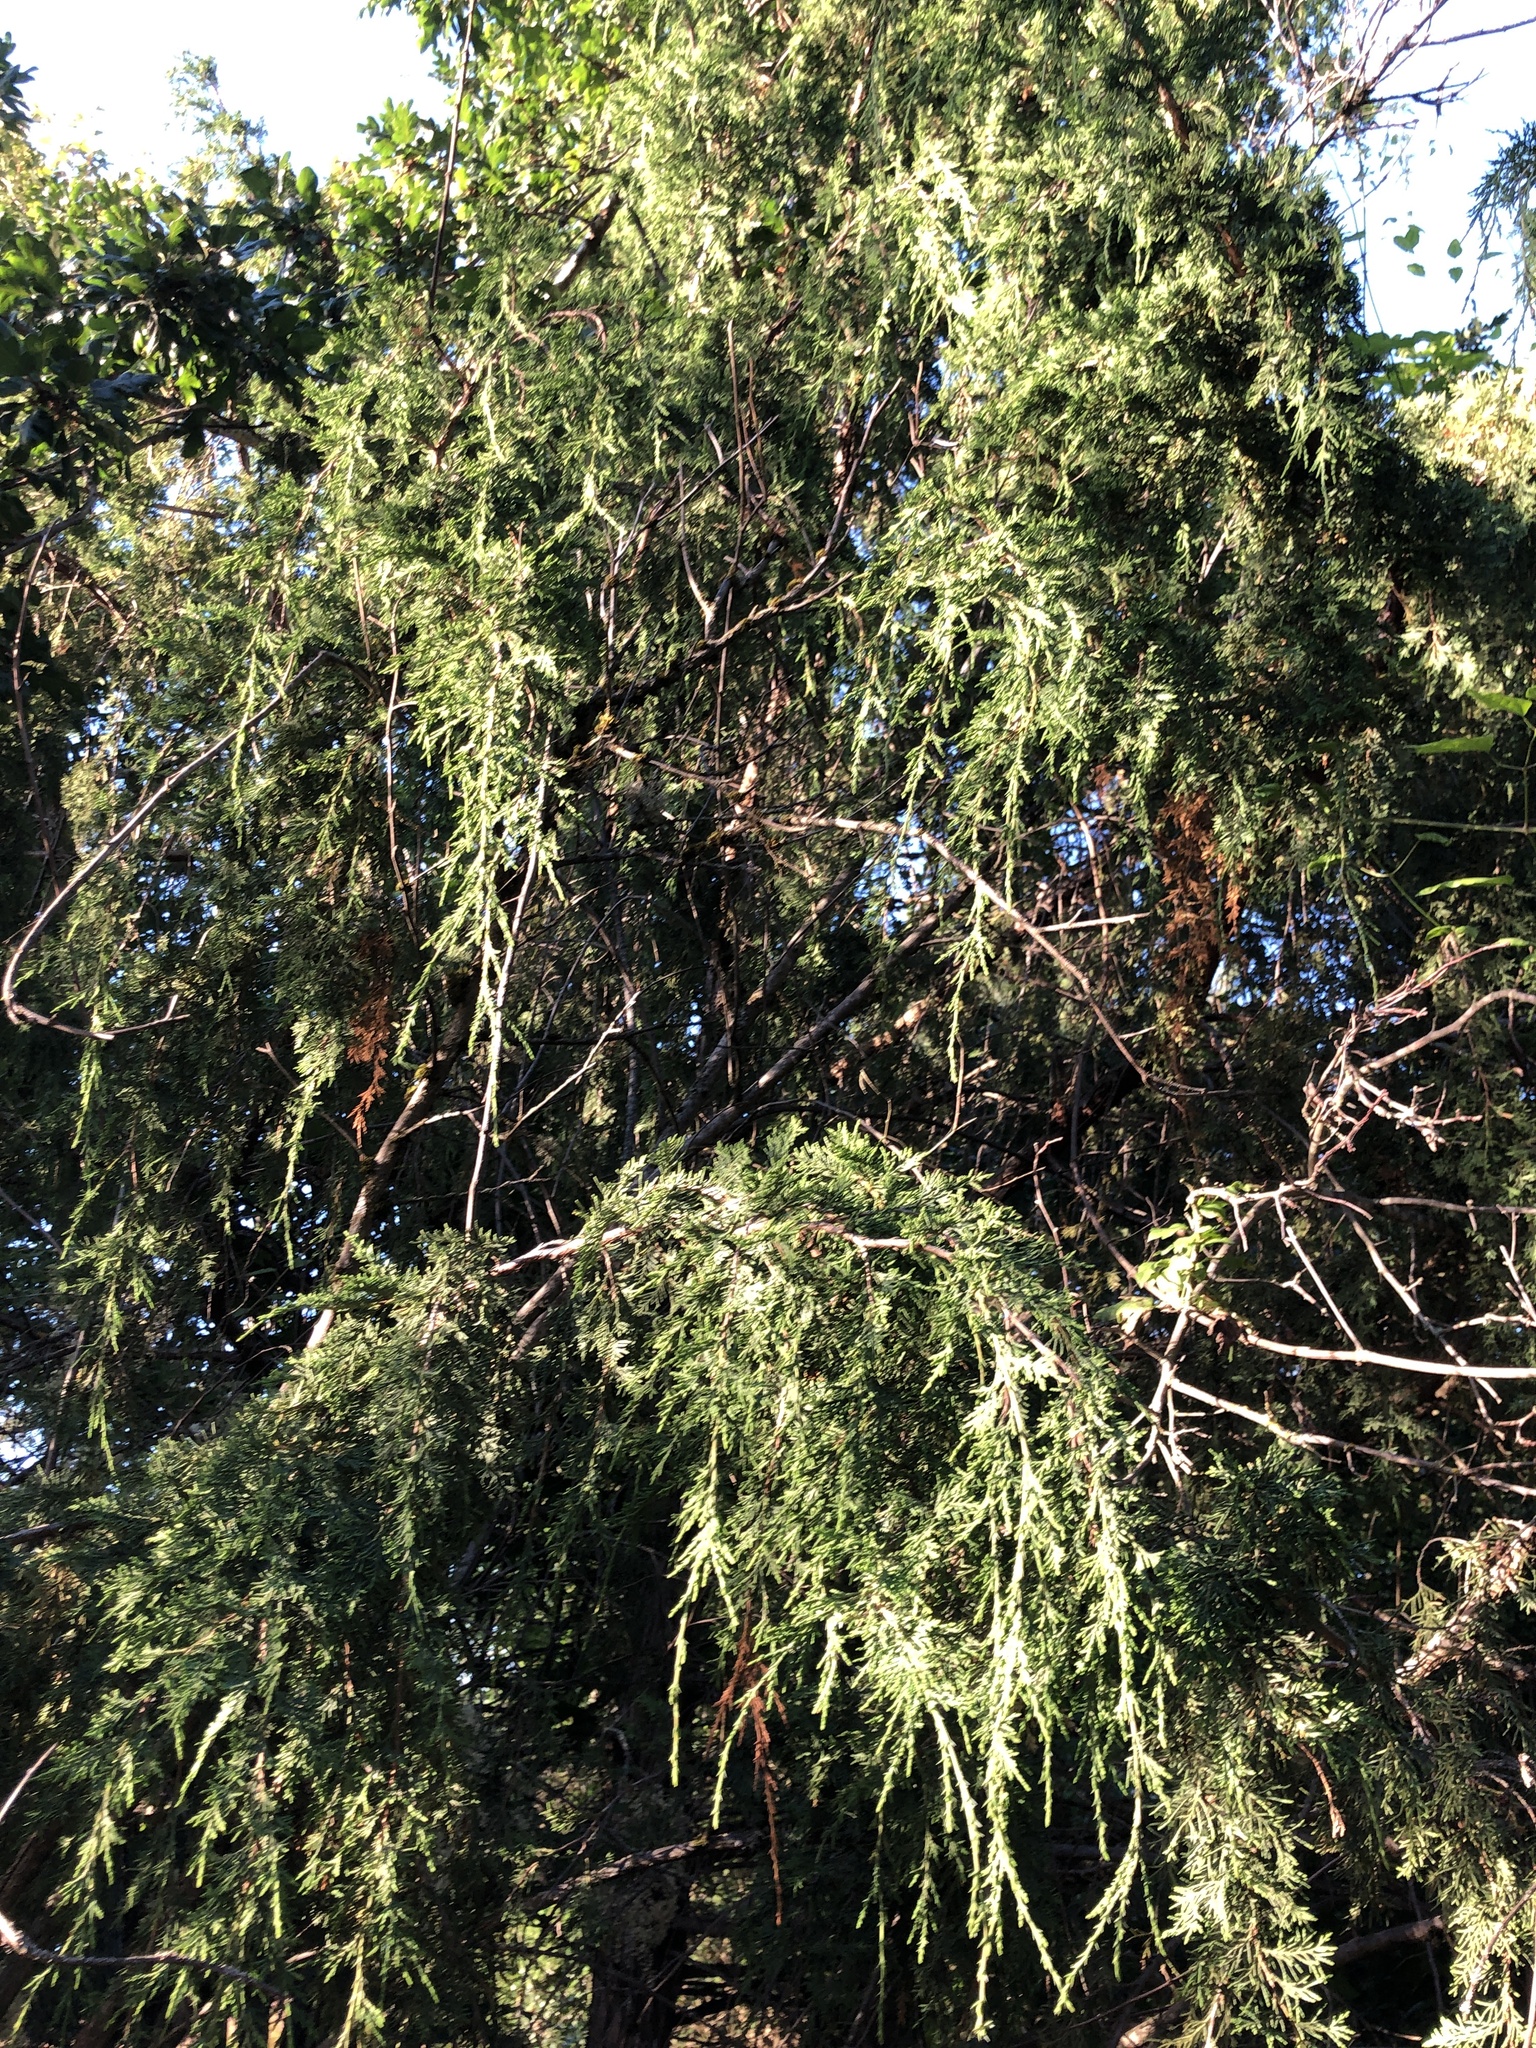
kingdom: Plantae
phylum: Tracheophyta
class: Pinopsida
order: Pinales
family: Cupressaceae
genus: Juniperus
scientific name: Juniperus scopulorum
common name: Rocky mountain juniper
